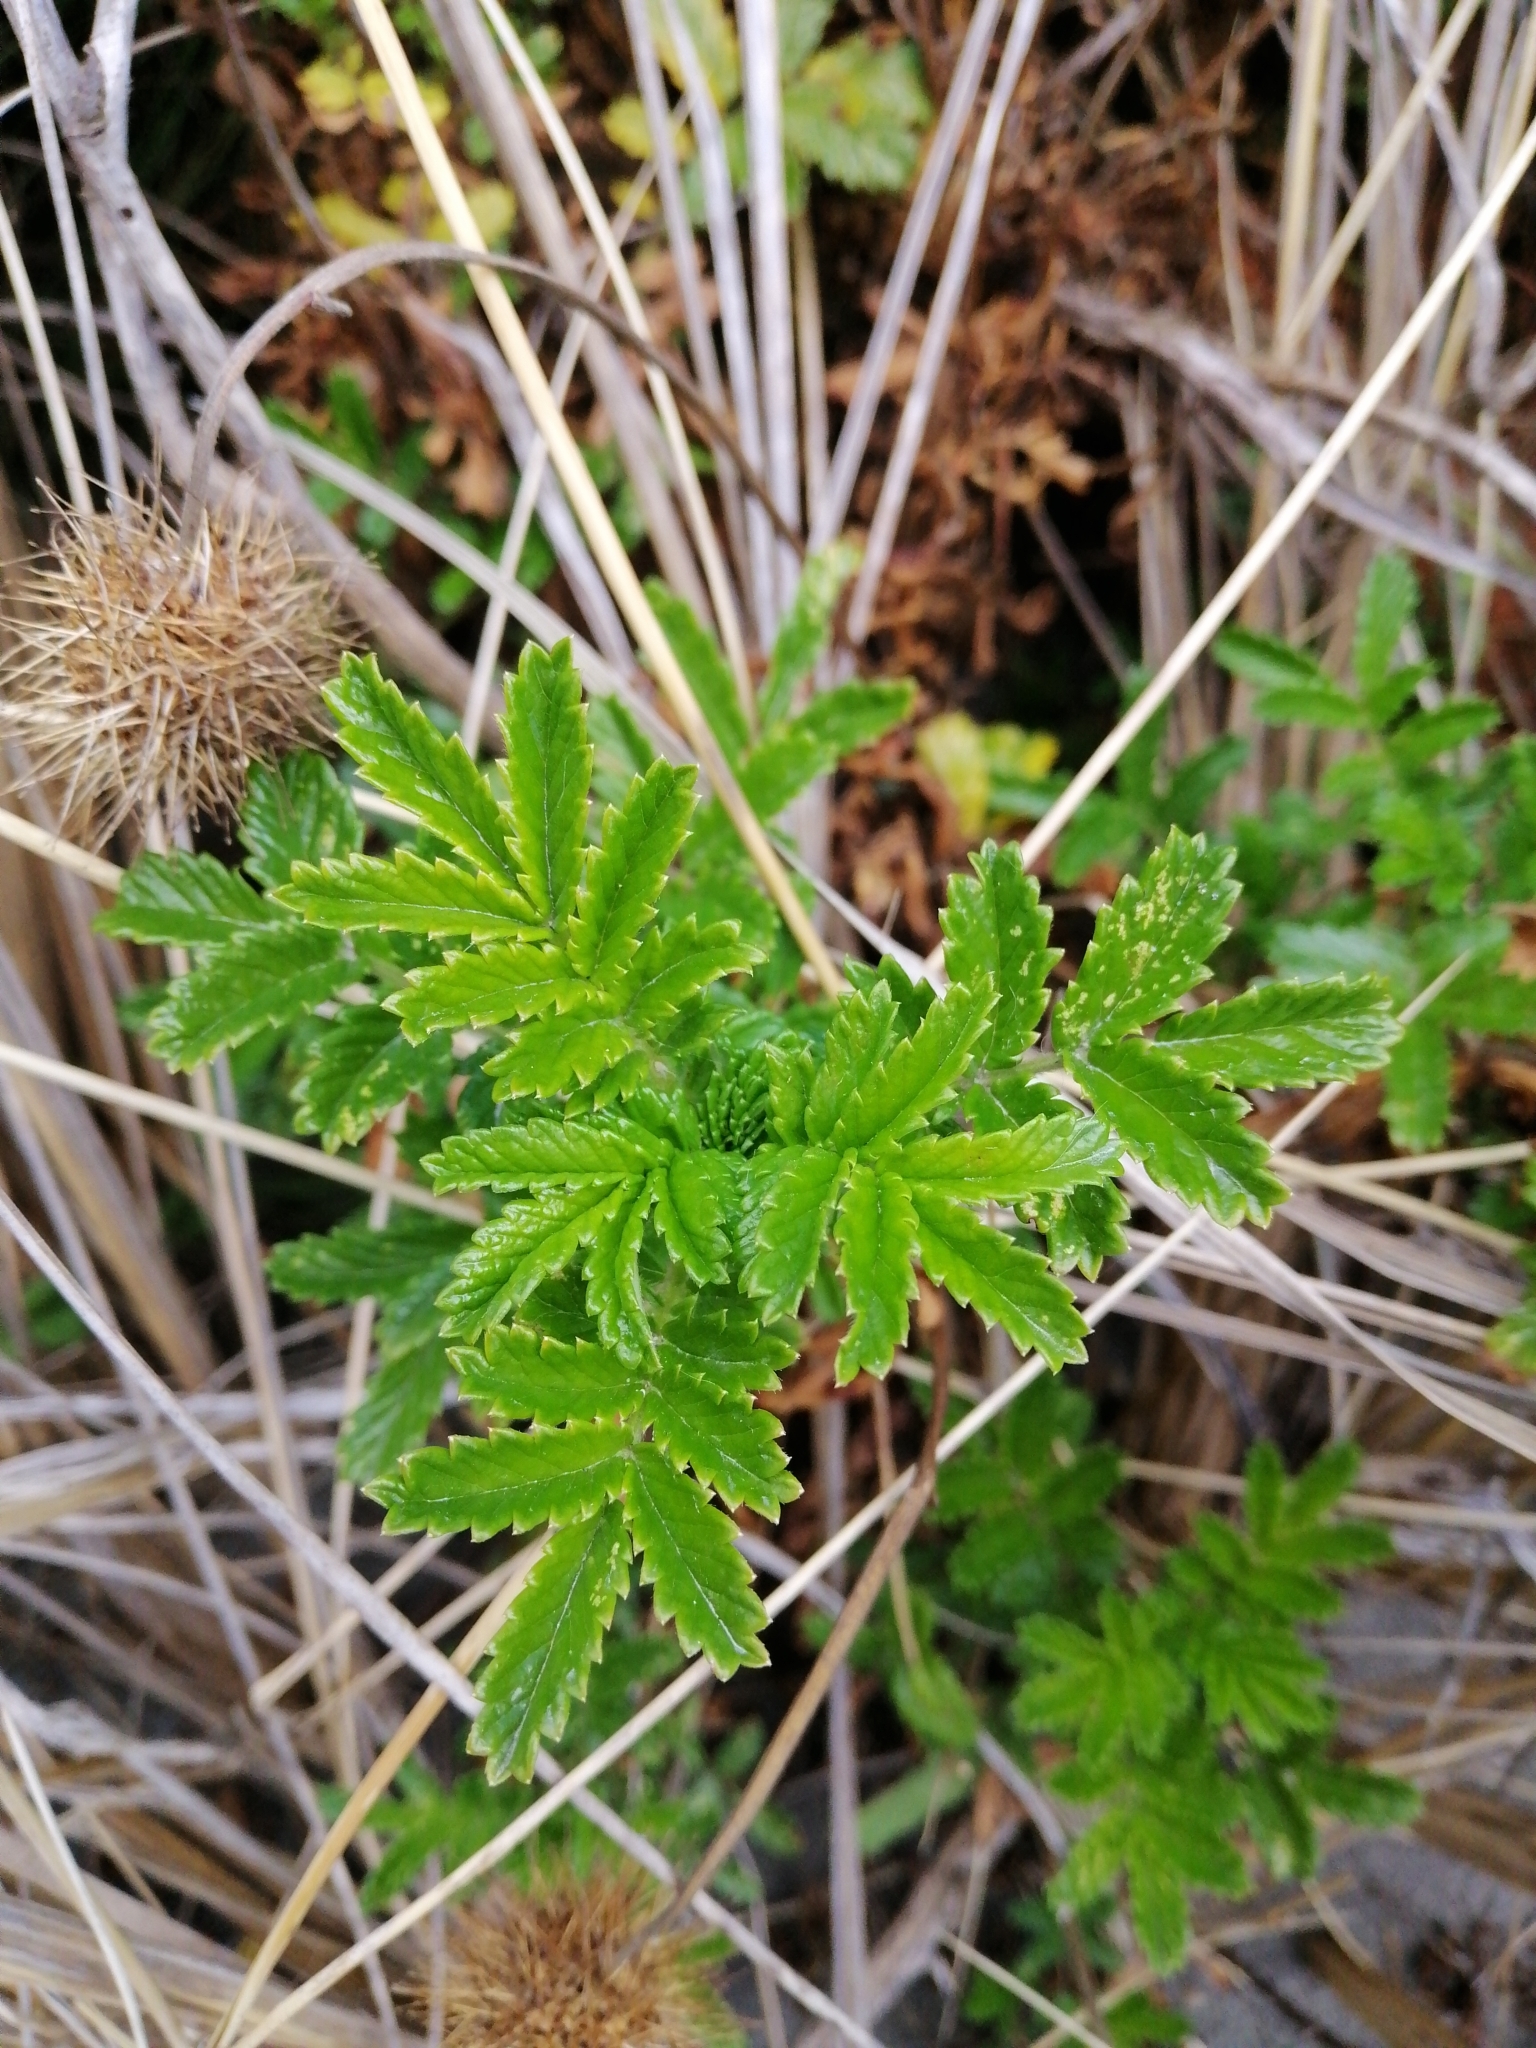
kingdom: Plantae
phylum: Tracheophyta
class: Magnoliopsida
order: Rosales
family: Rosaceae
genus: Acaena
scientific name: Acaena pallida
